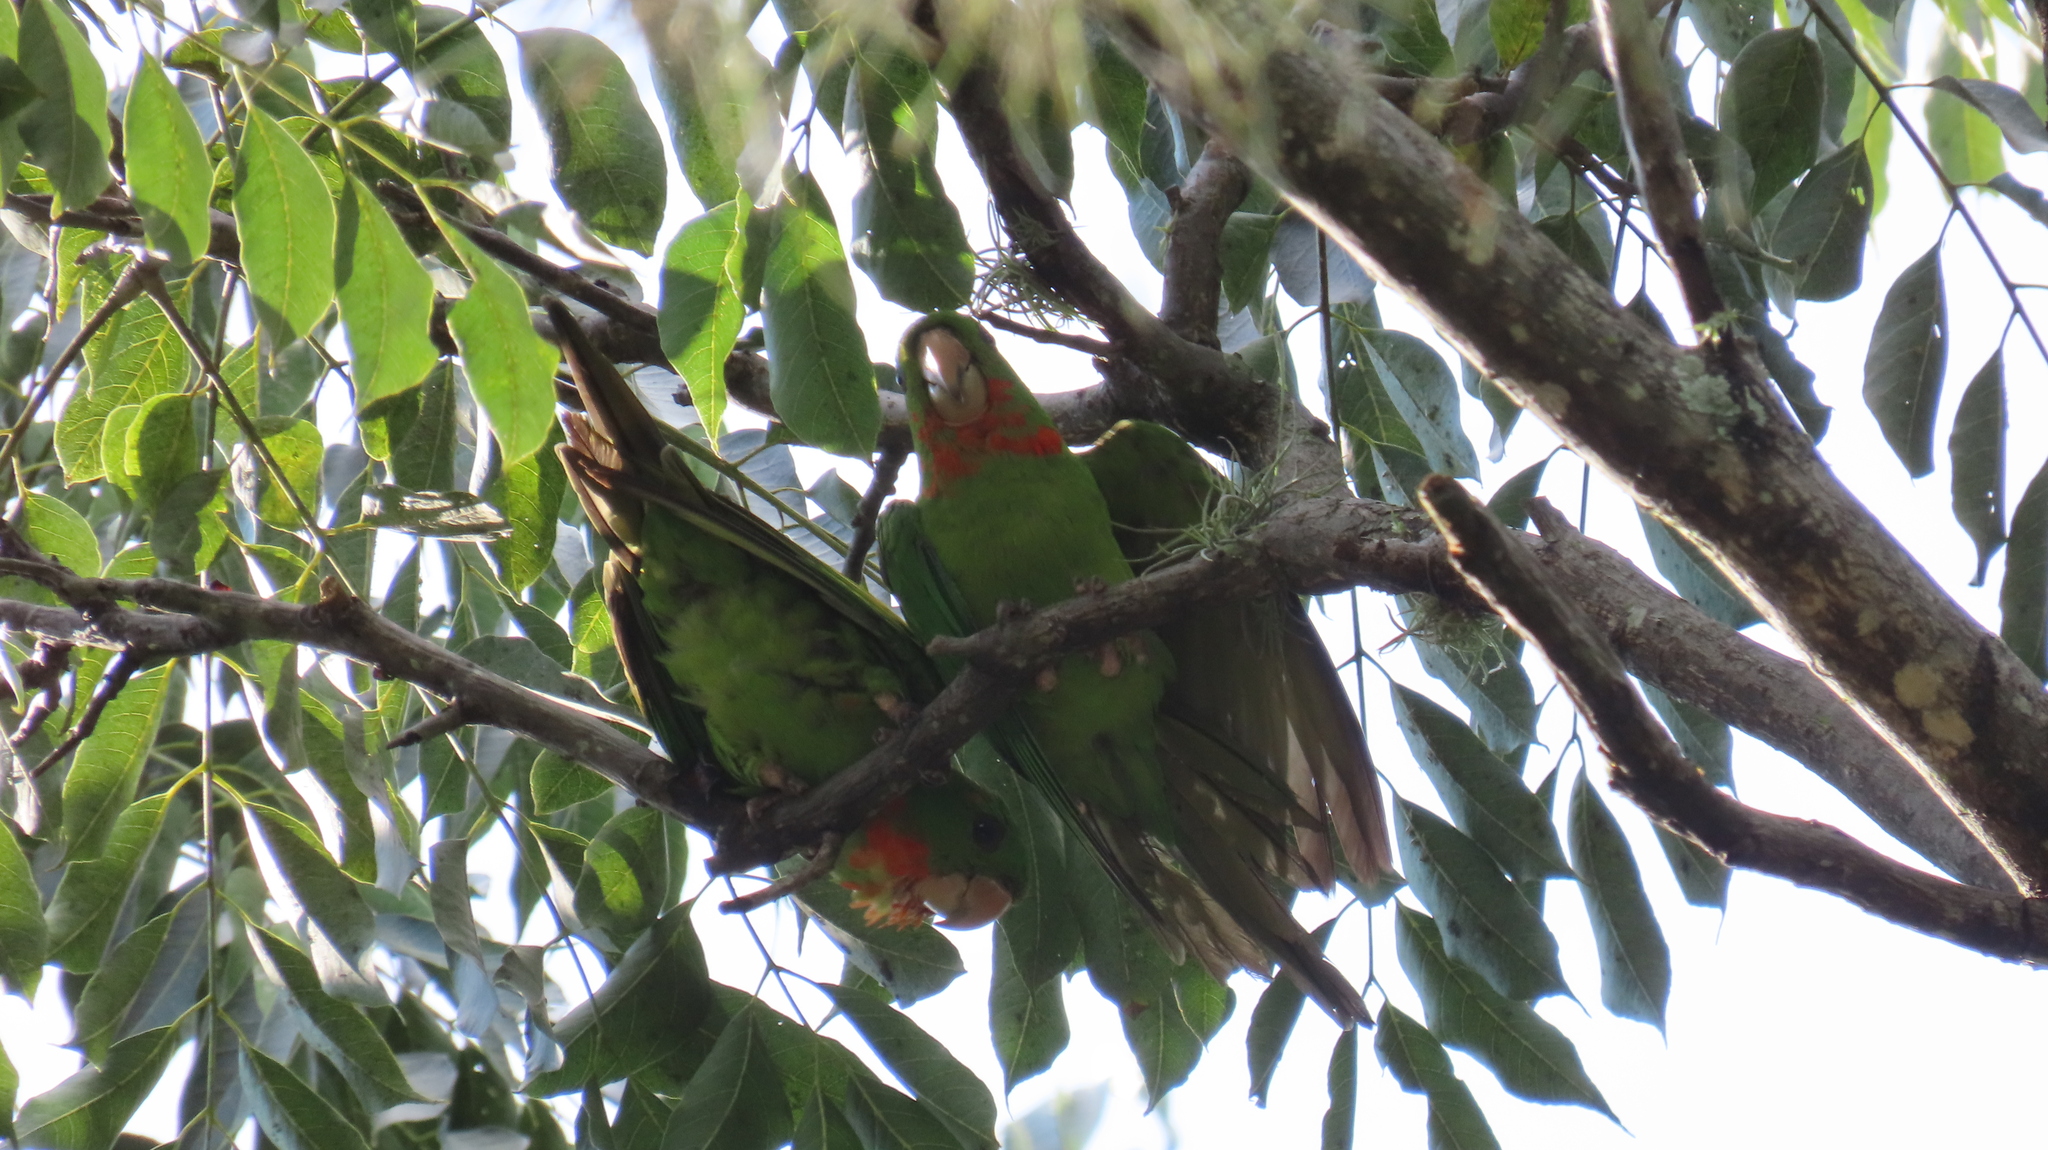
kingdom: Animalia
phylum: Chordata
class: Aves
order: Psittaciformes
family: Psittacidae
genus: Aratinga
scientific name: Aratinga holochlora
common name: Green parakeet
